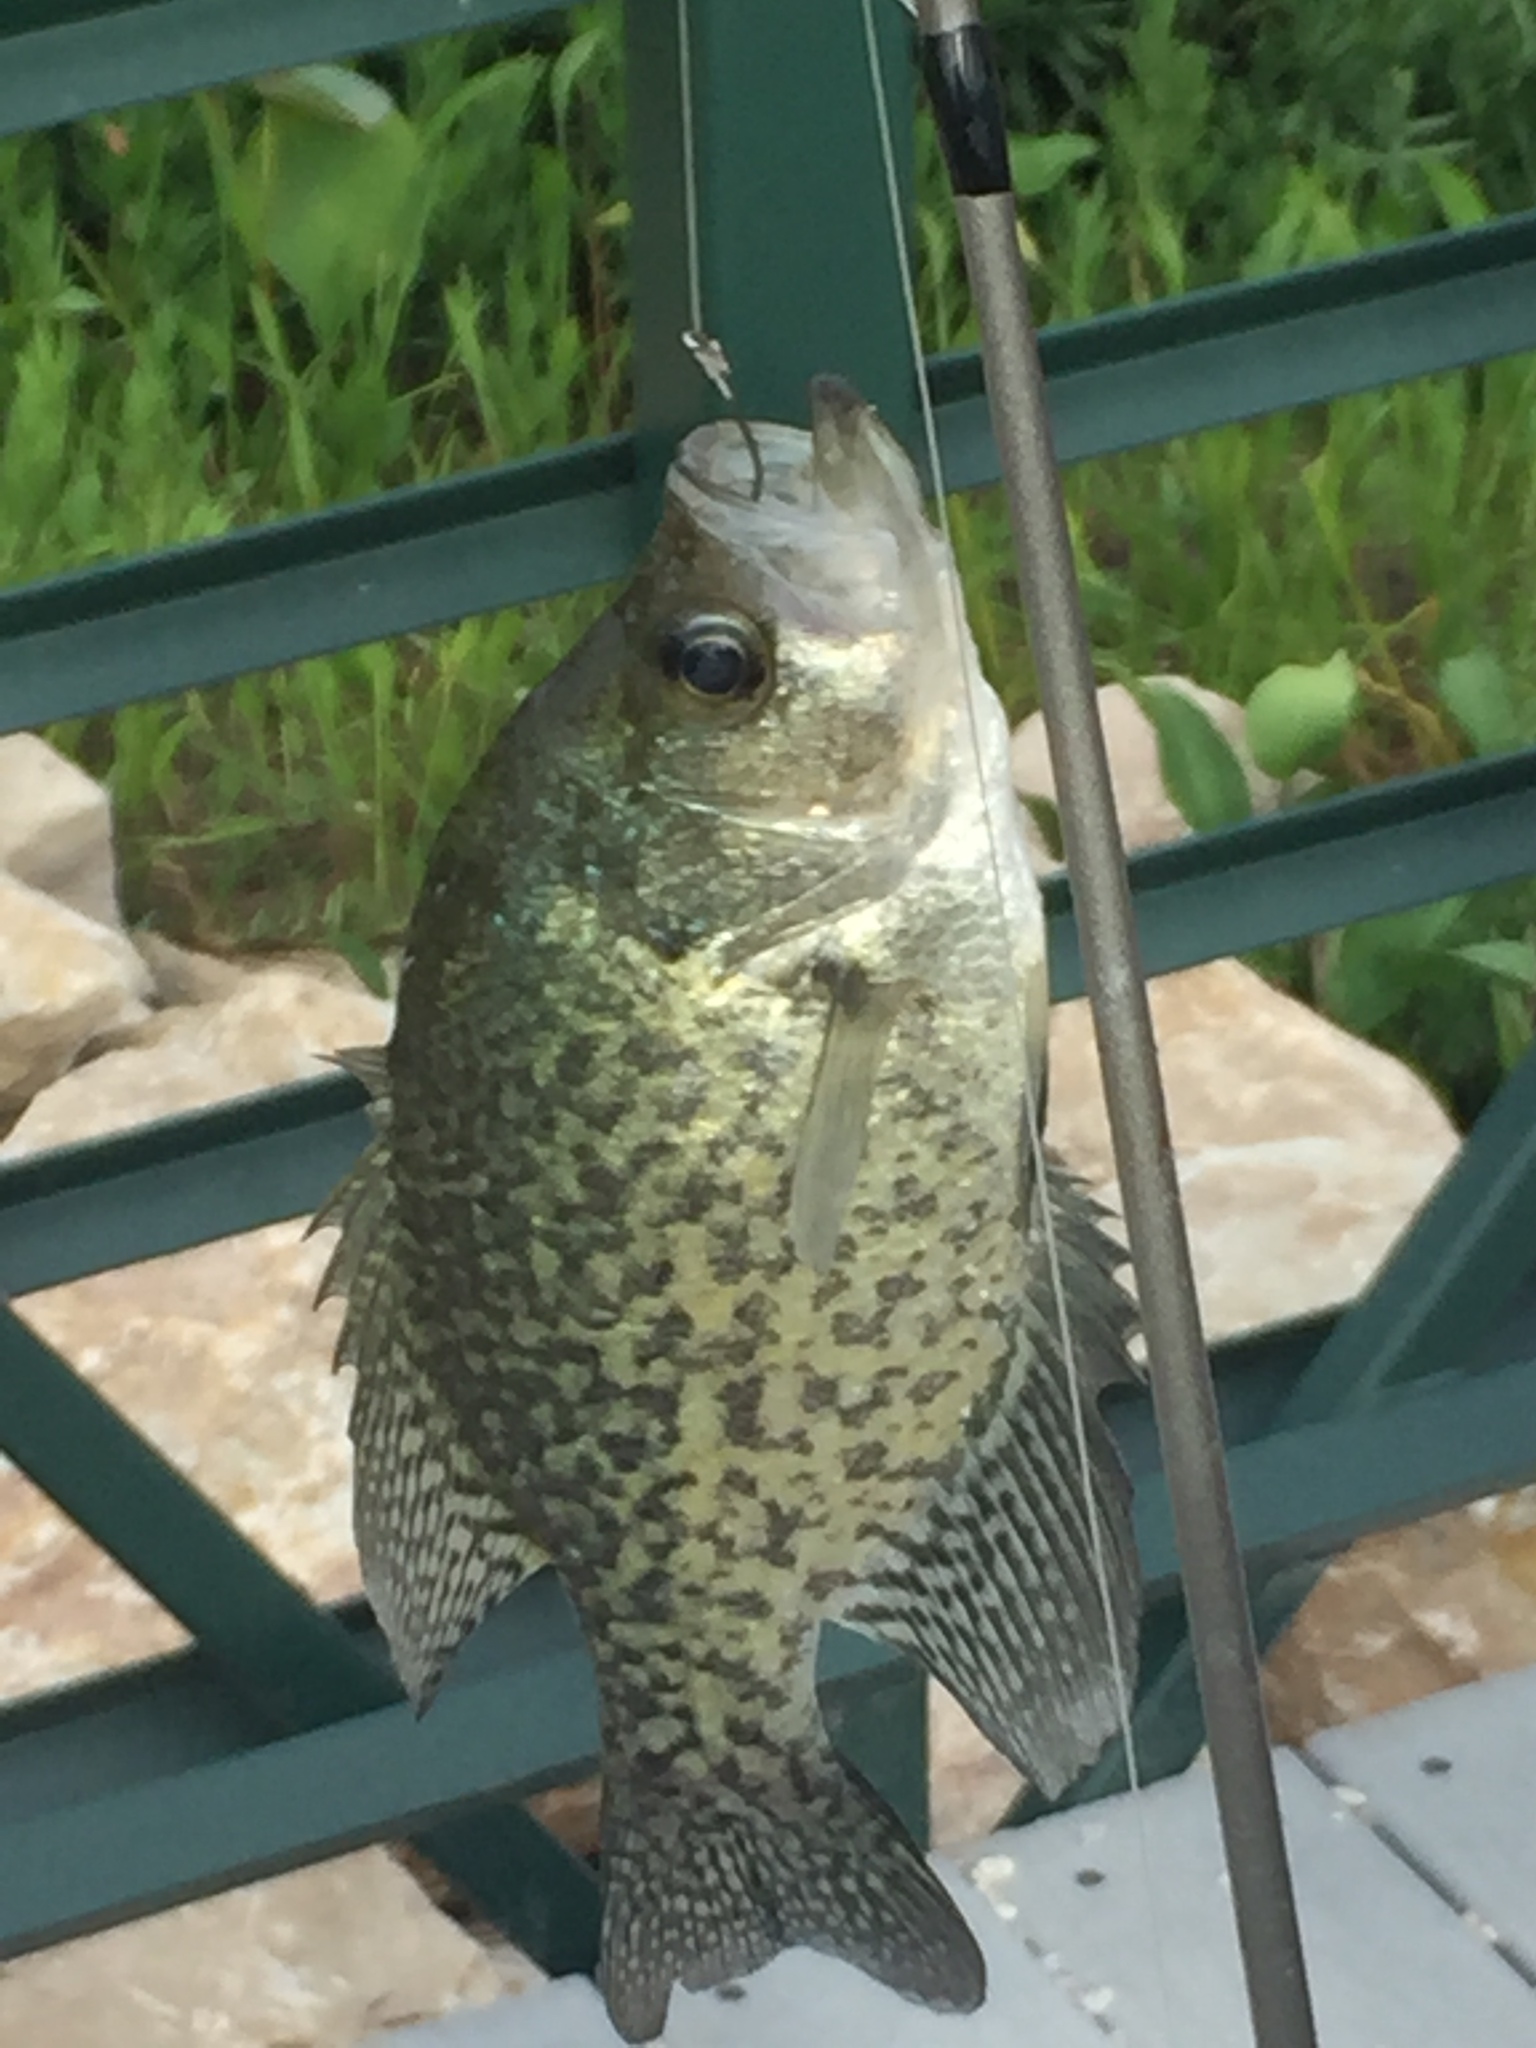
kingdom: Animalia
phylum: Chordata
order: Perciformes
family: Centrarchidae
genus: Pomoxis
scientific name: Pomoxis nigromaculatus
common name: Black crappie
